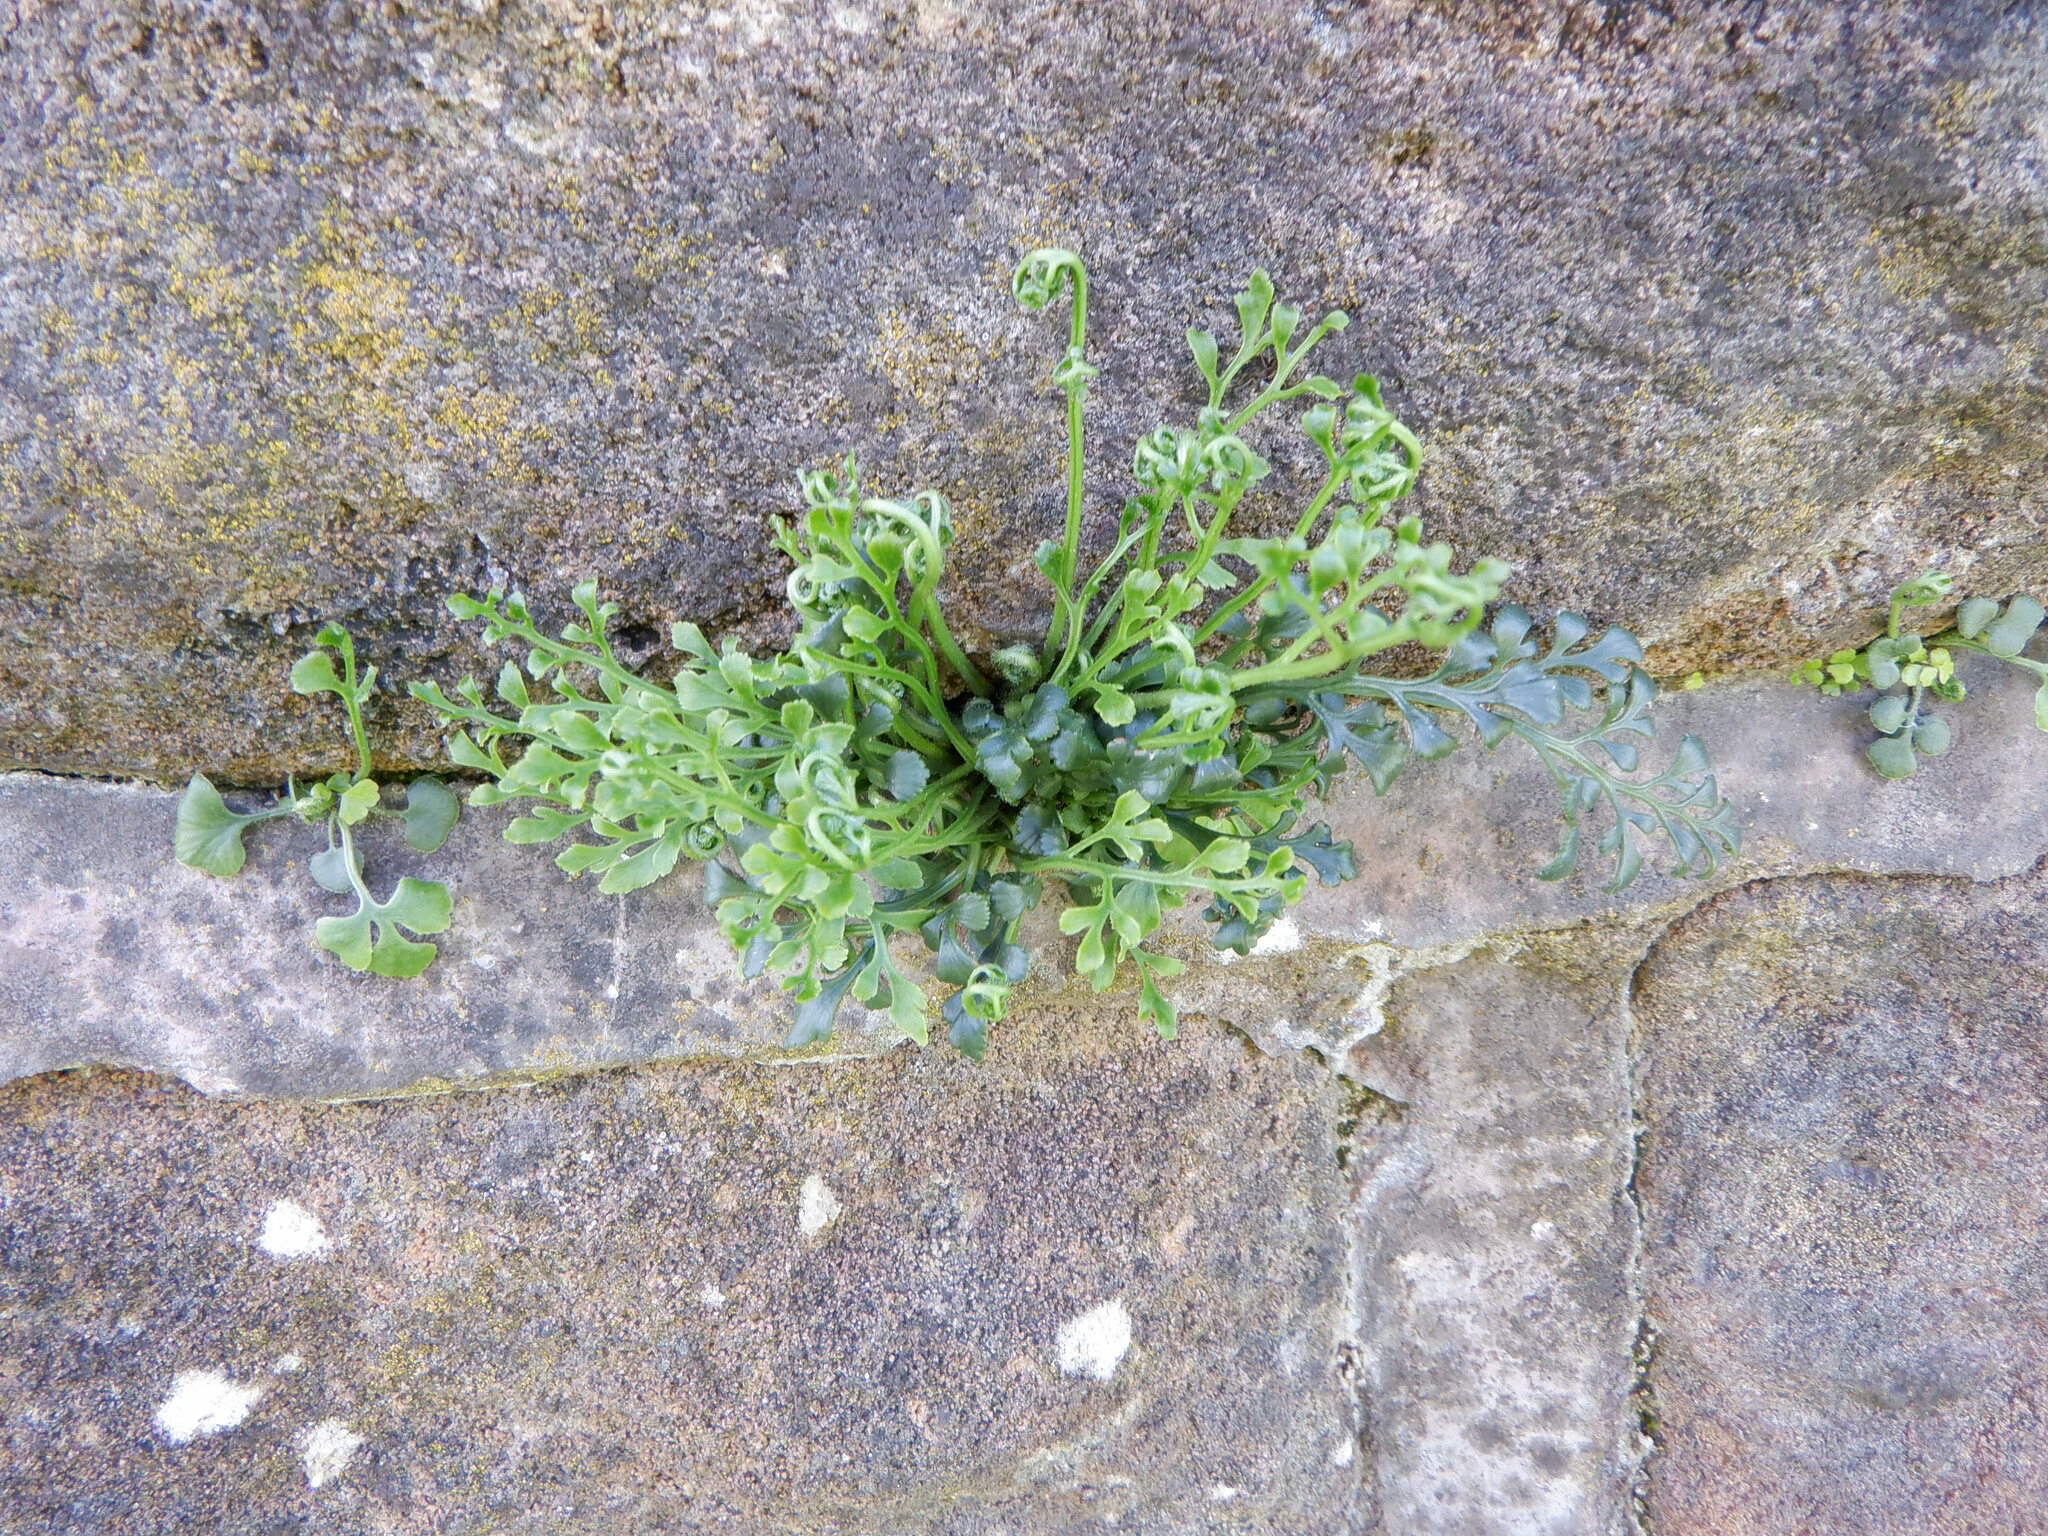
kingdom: Plantae
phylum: Tracheophyta
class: Polypodiopsida
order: Polypodiales
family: Aspleniaceae
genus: Asplenium
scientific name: Asplenium ruta-muraria
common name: Wall-rue
